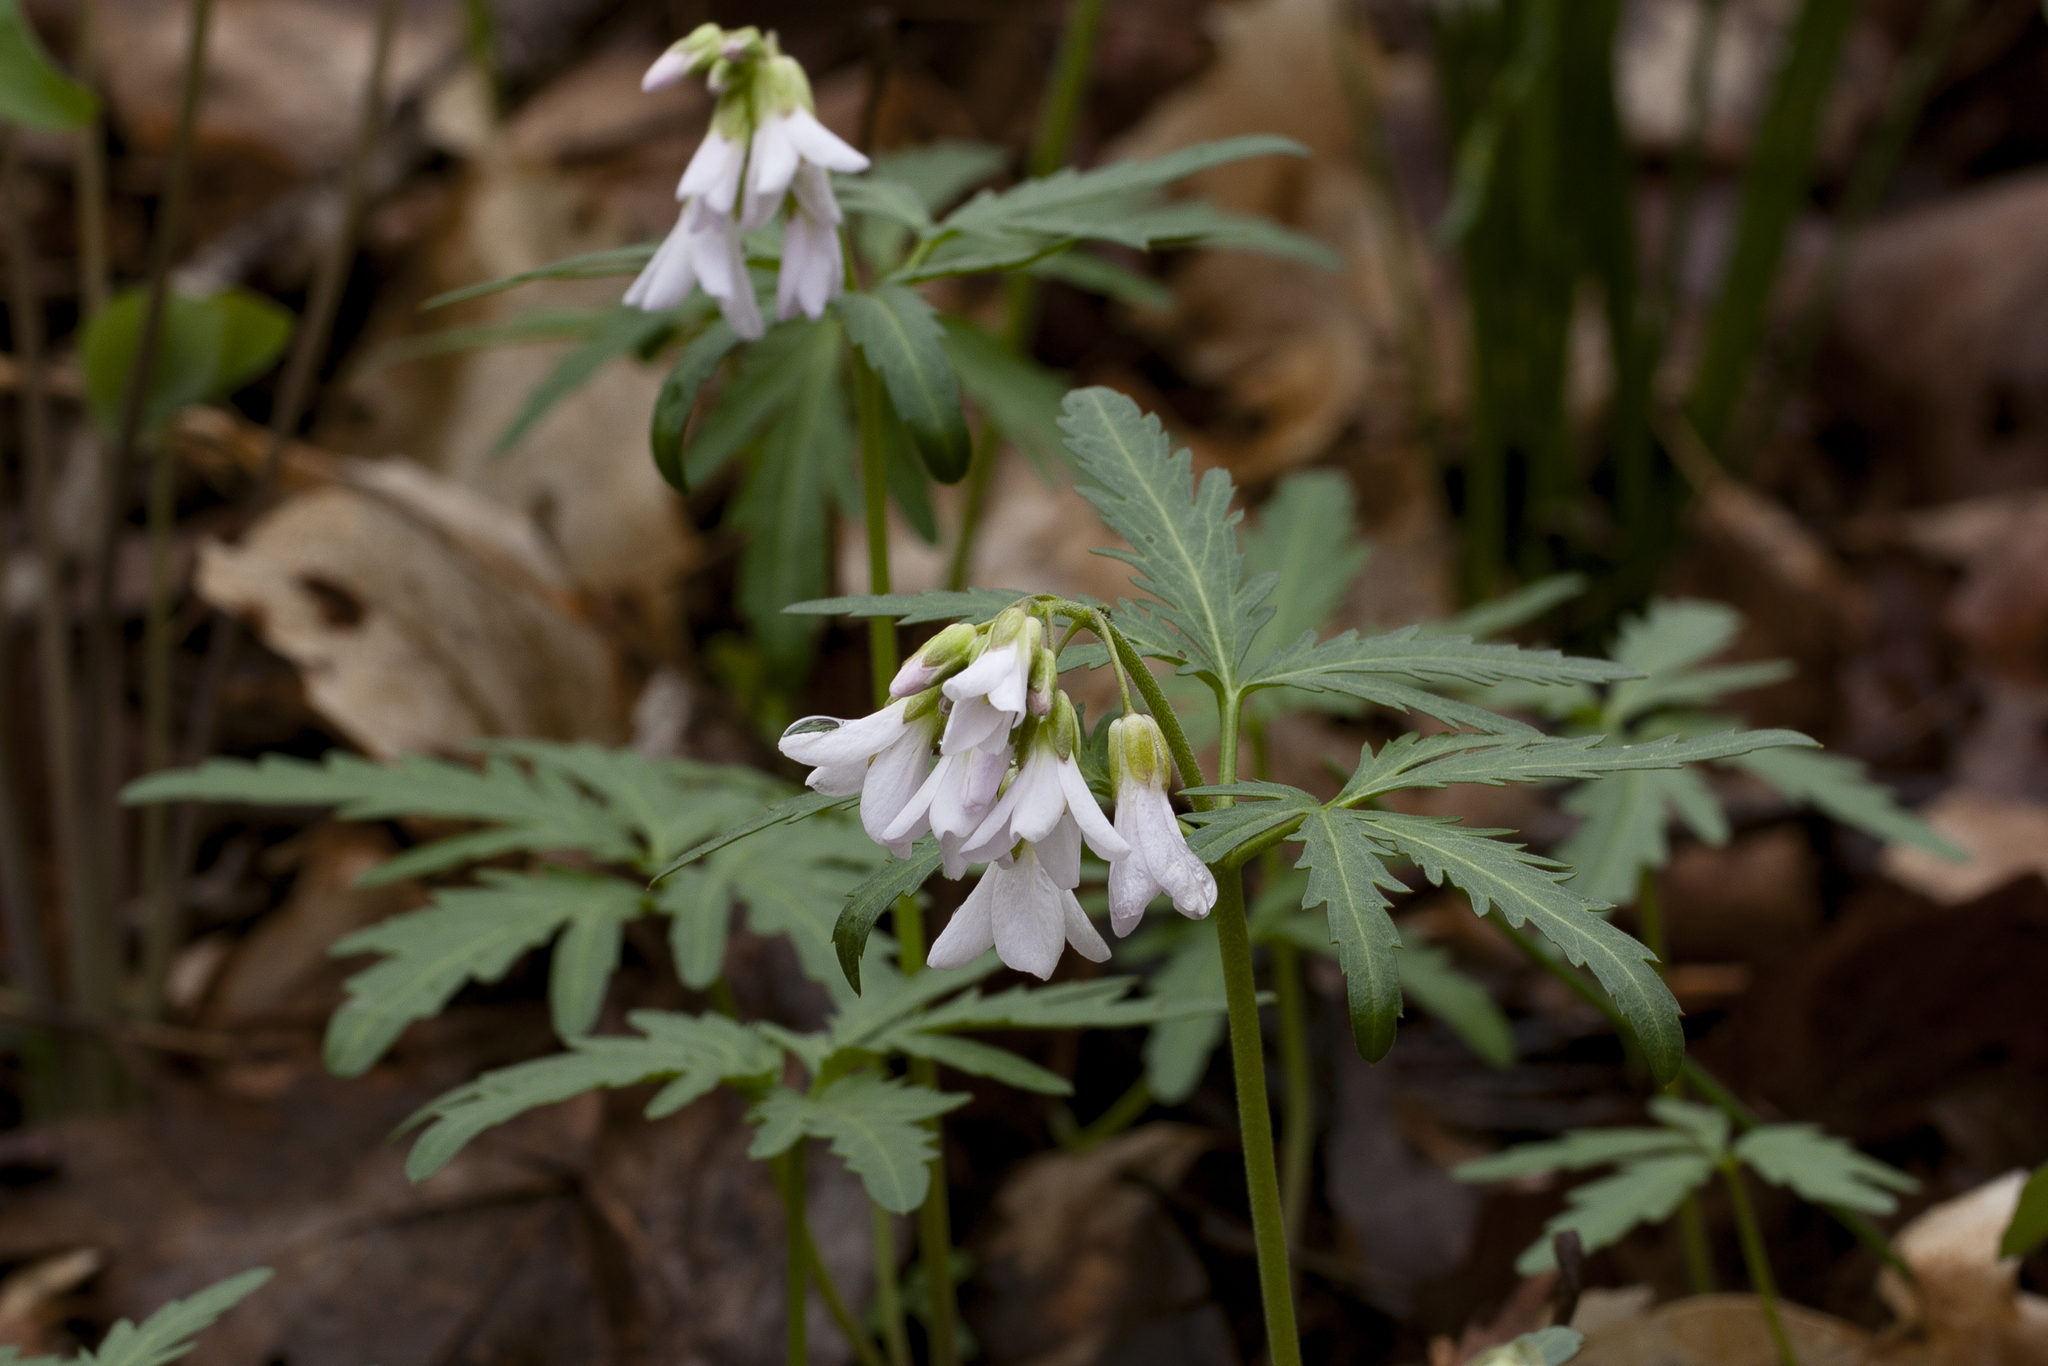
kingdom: Plantae
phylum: Tracheophyta
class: Magnoliopsida
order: Brassicales
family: Brassicaceae
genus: Cardamine
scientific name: Cardamine concatenata
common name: Cut-leaf toothcup
